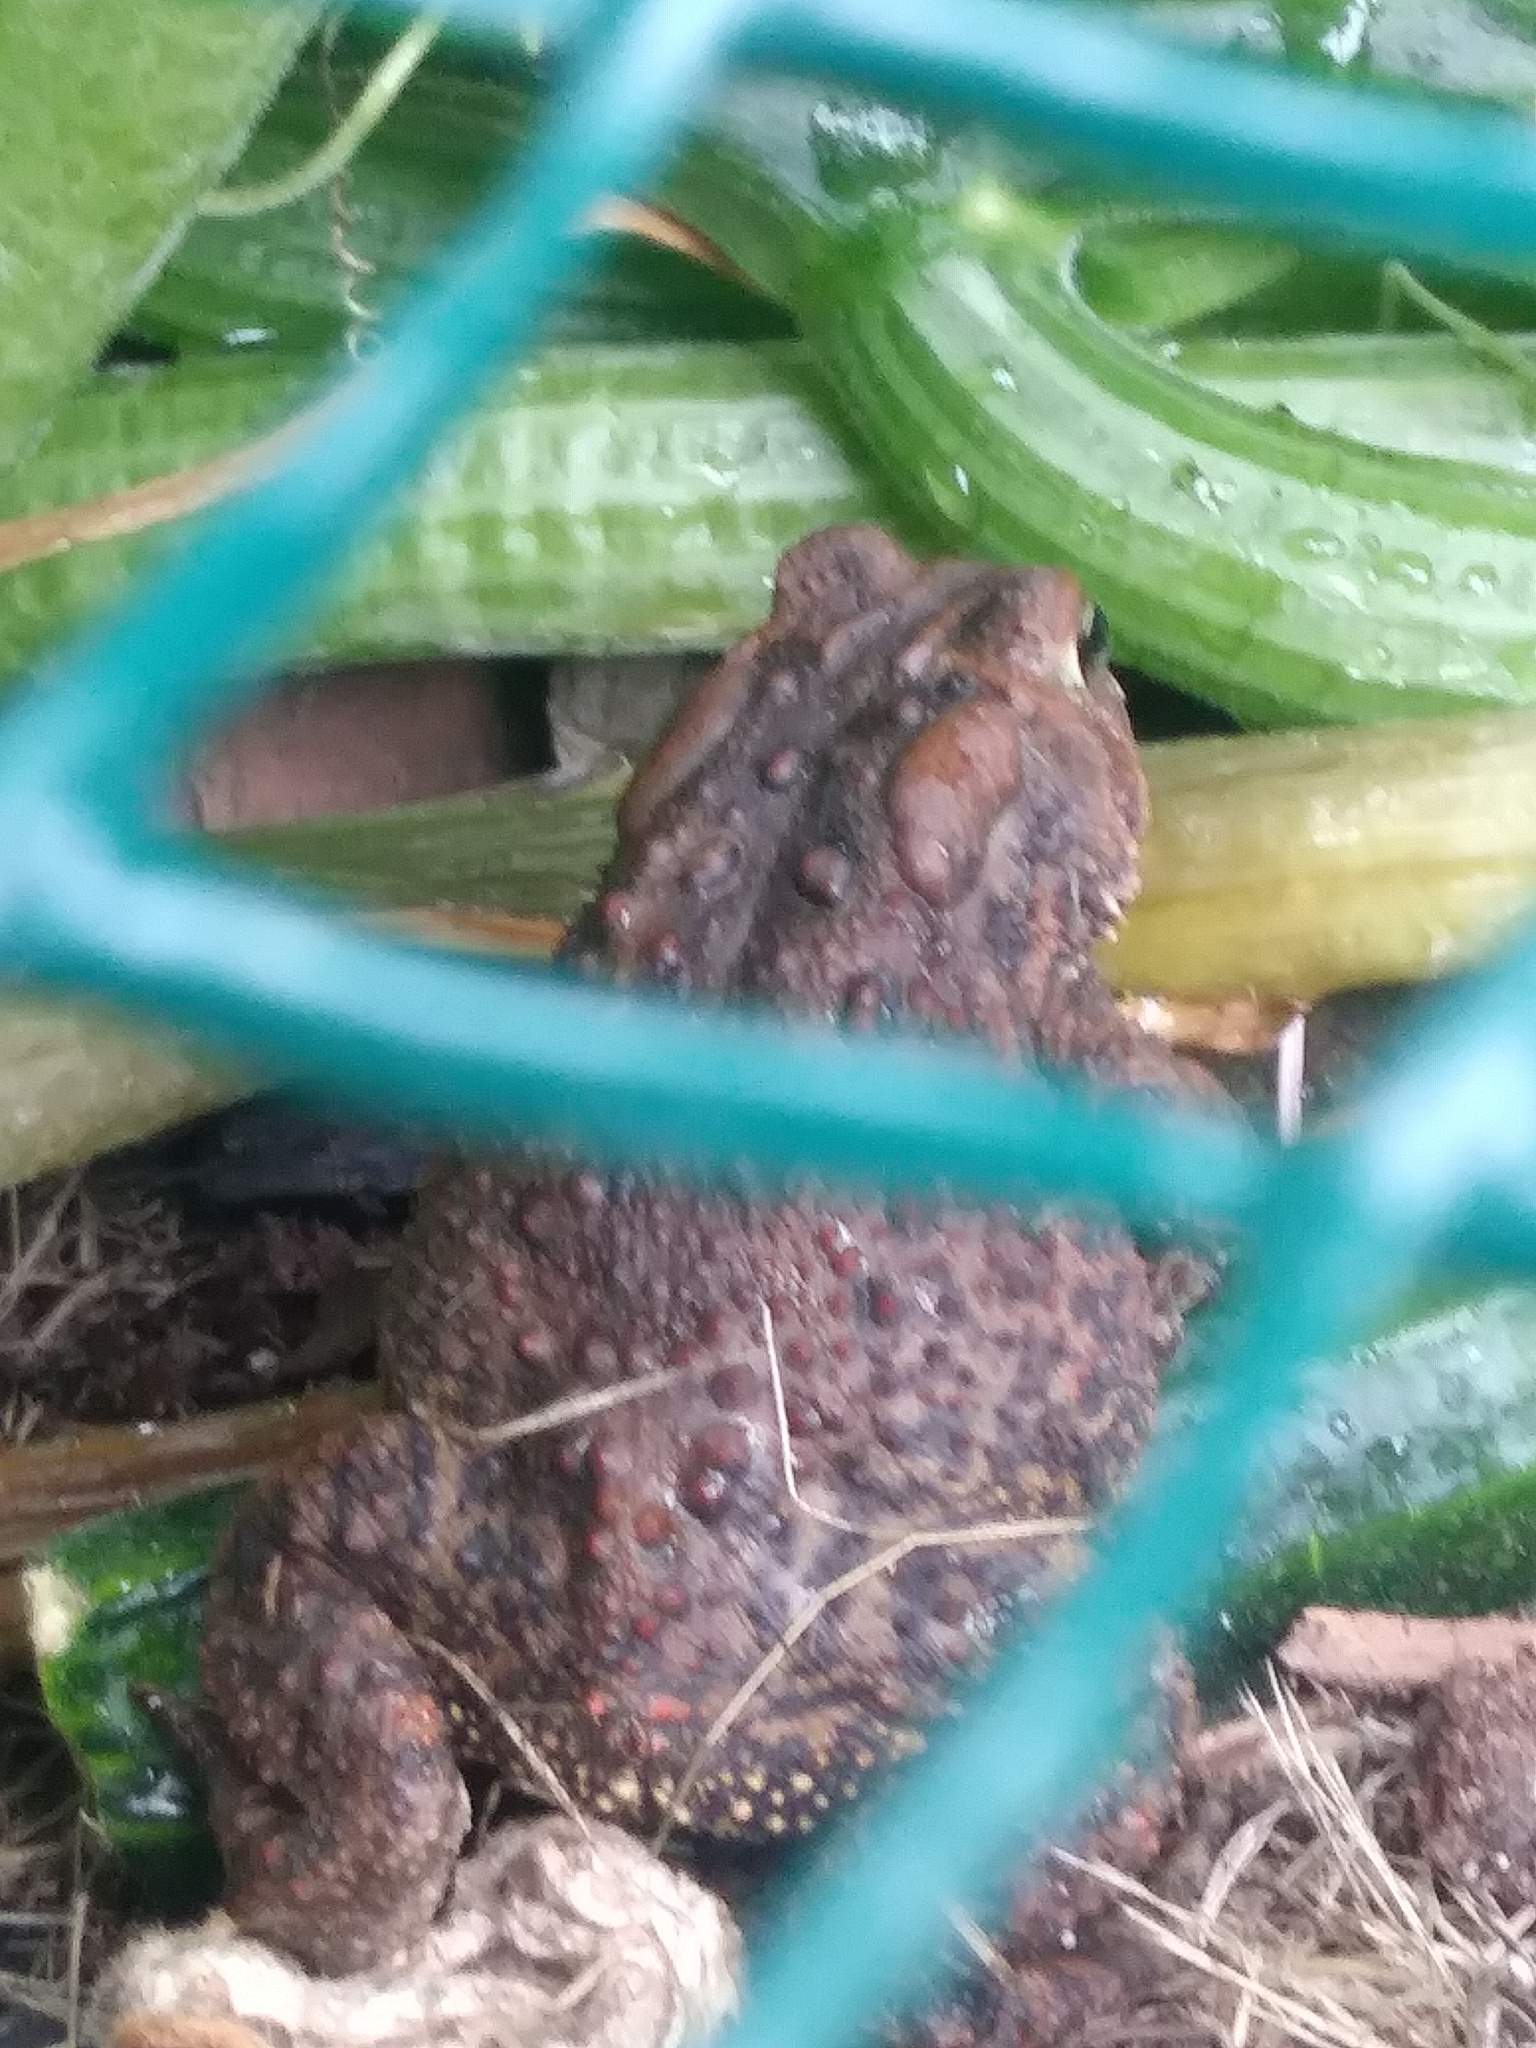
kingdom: Animalia
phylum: Chordata
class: Amphibia
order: Anura
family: Bufonidae
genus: Anaxyrus
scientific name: Anaxyrus americanus
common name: American toad
